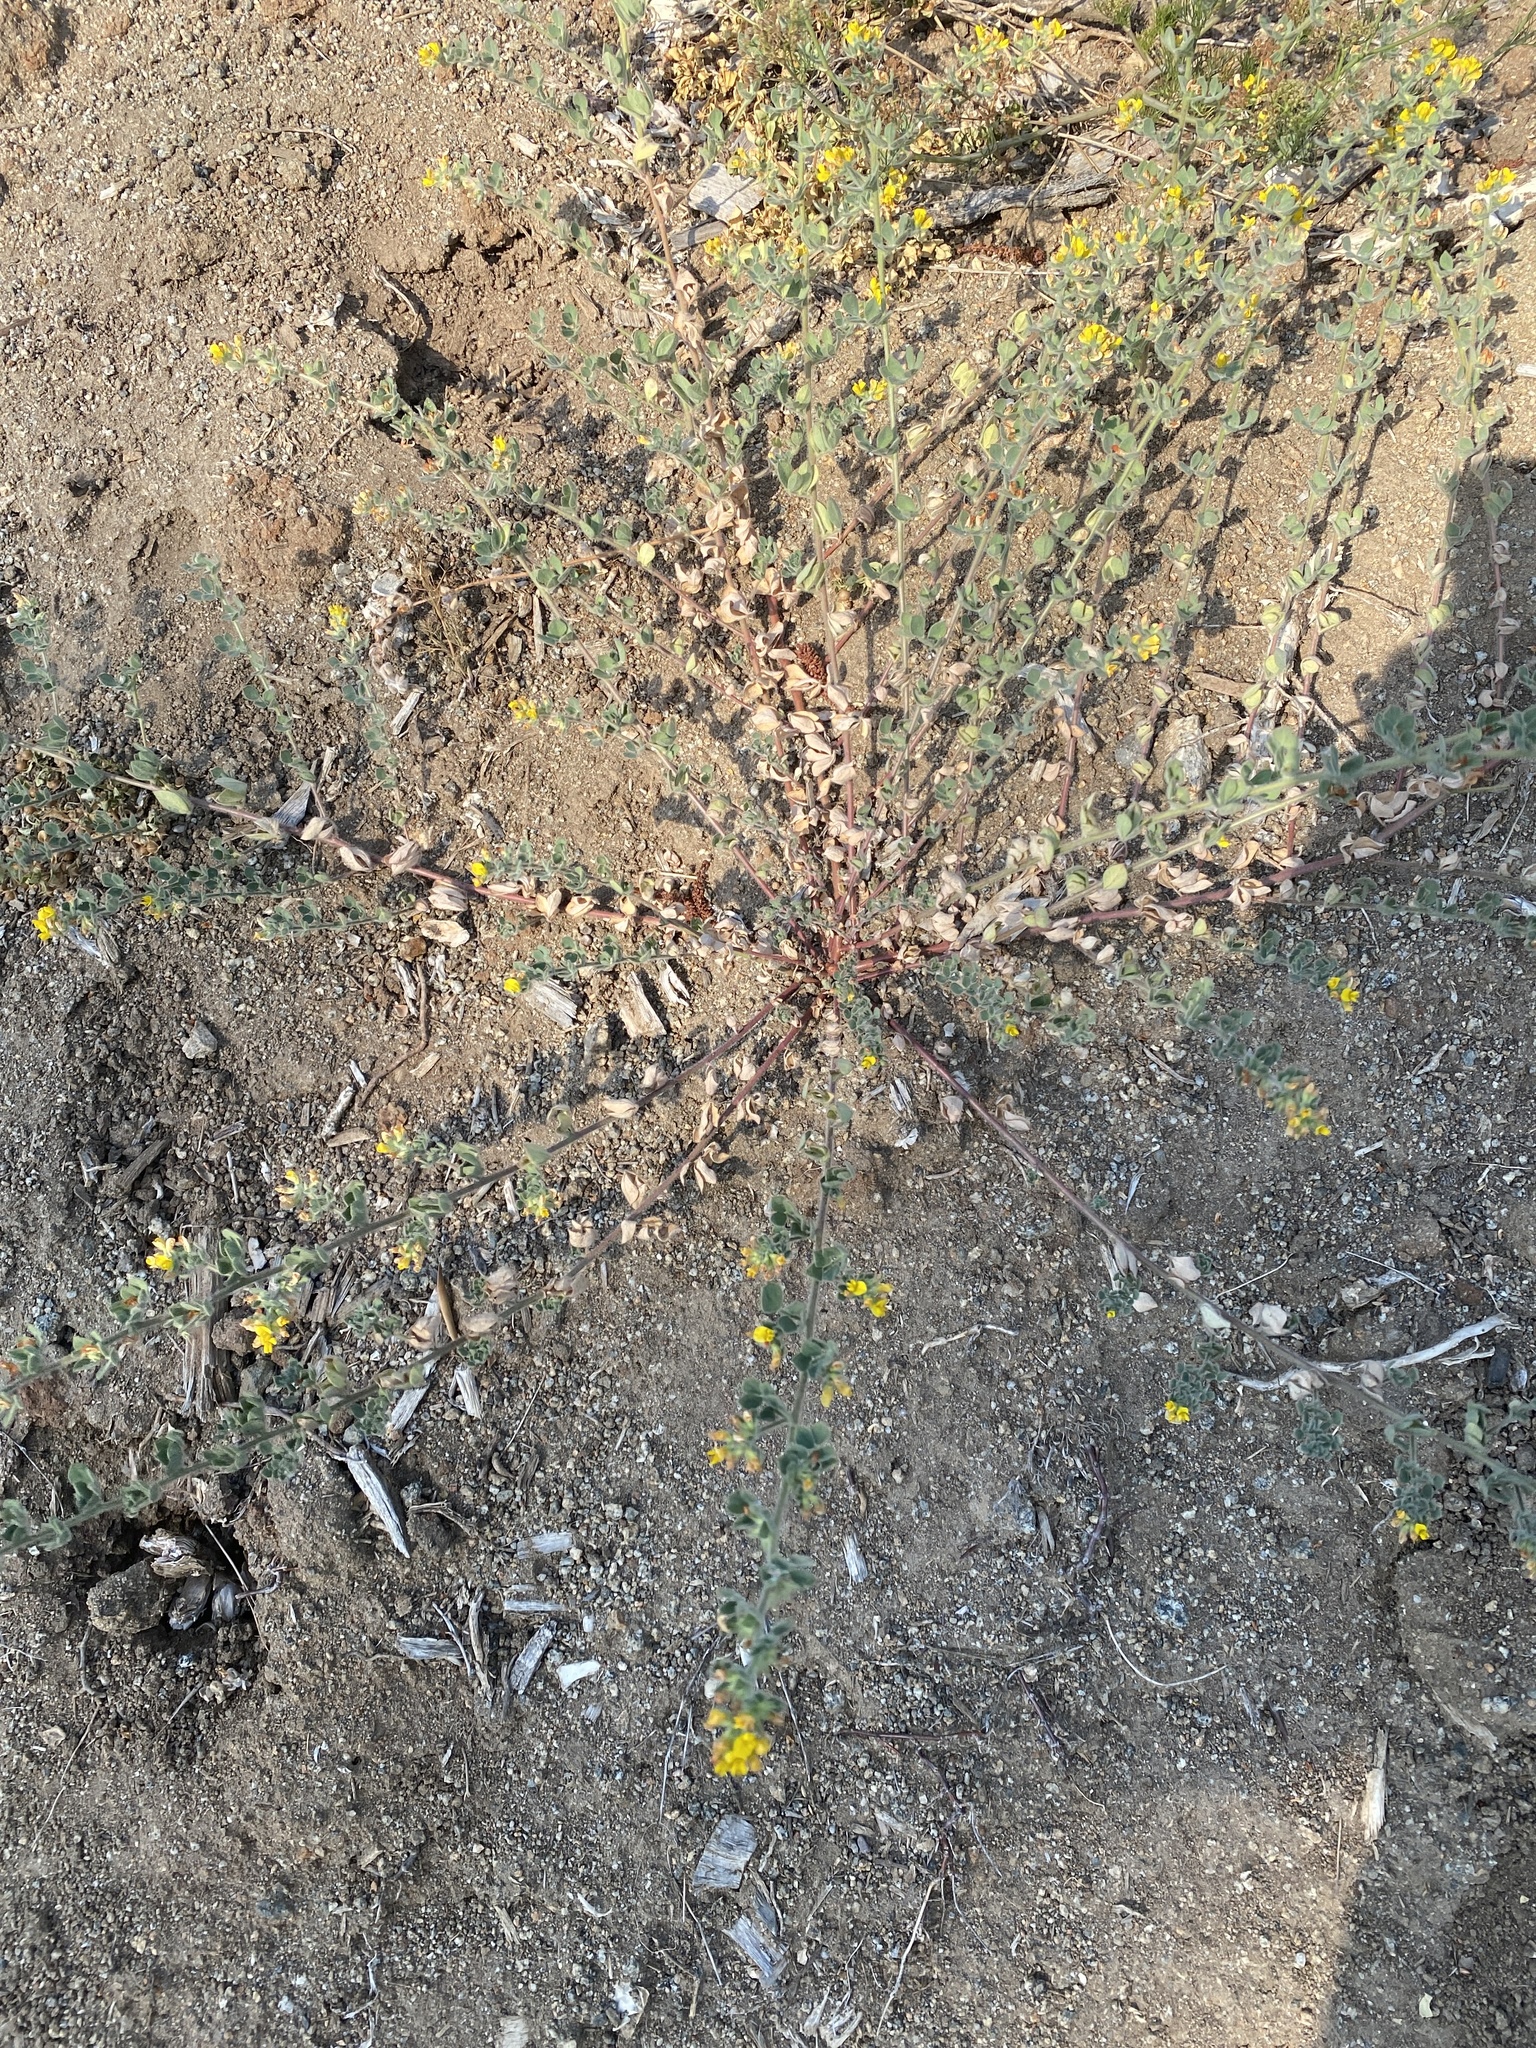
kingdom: Plantae
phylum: Tracheophyta
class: Magnoliopsida
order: Fabales
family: Fabaceae
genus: Acmispon
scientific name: Acmispon tomentosus
